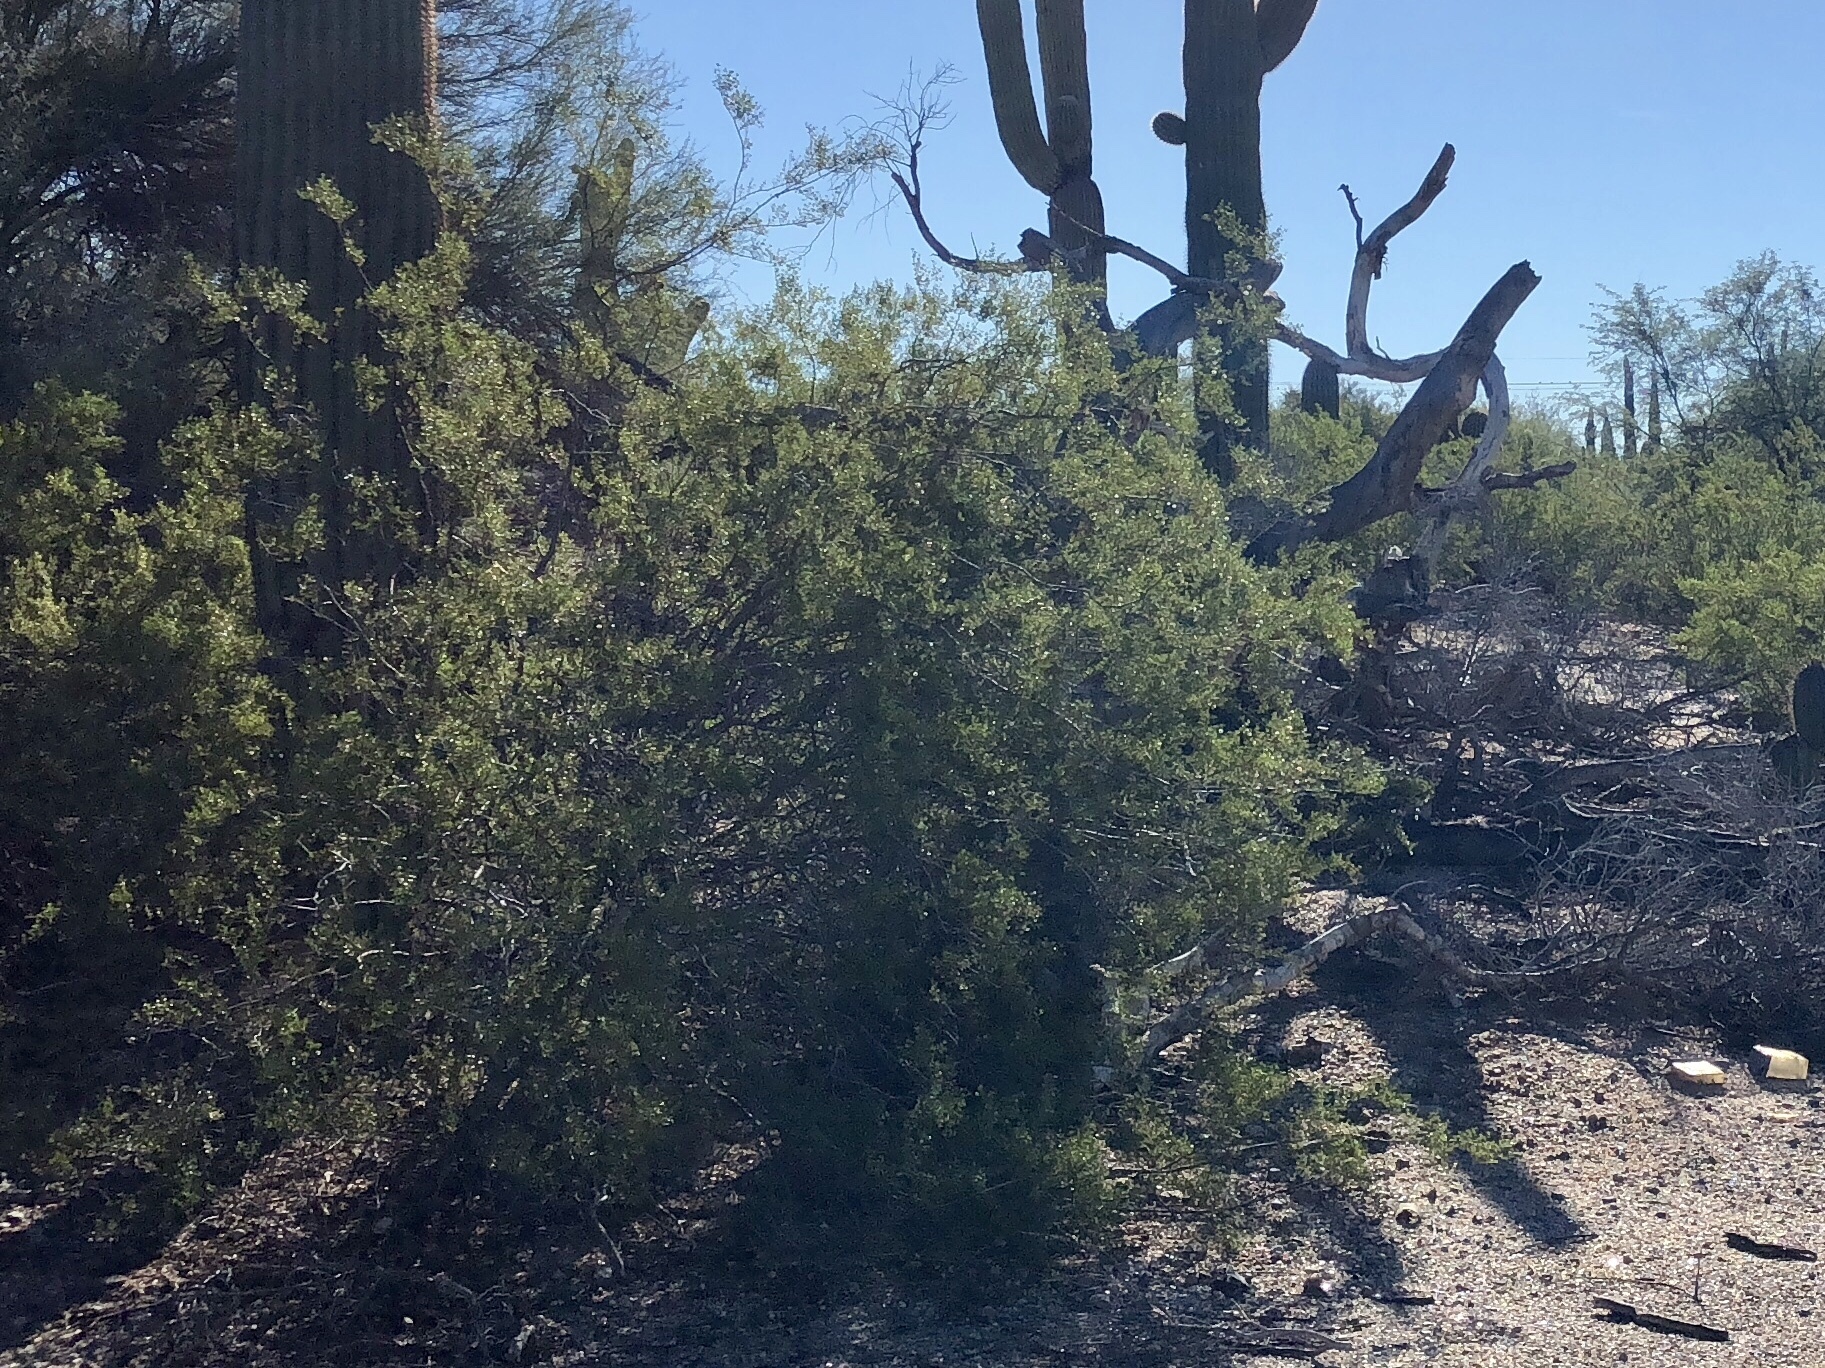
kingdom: Plantae
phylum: Tracheophyta
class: Magnoliopsida
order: Zygophyllales
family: Zygophyllaceae
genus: Larrea
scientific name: Larrea tridentata
